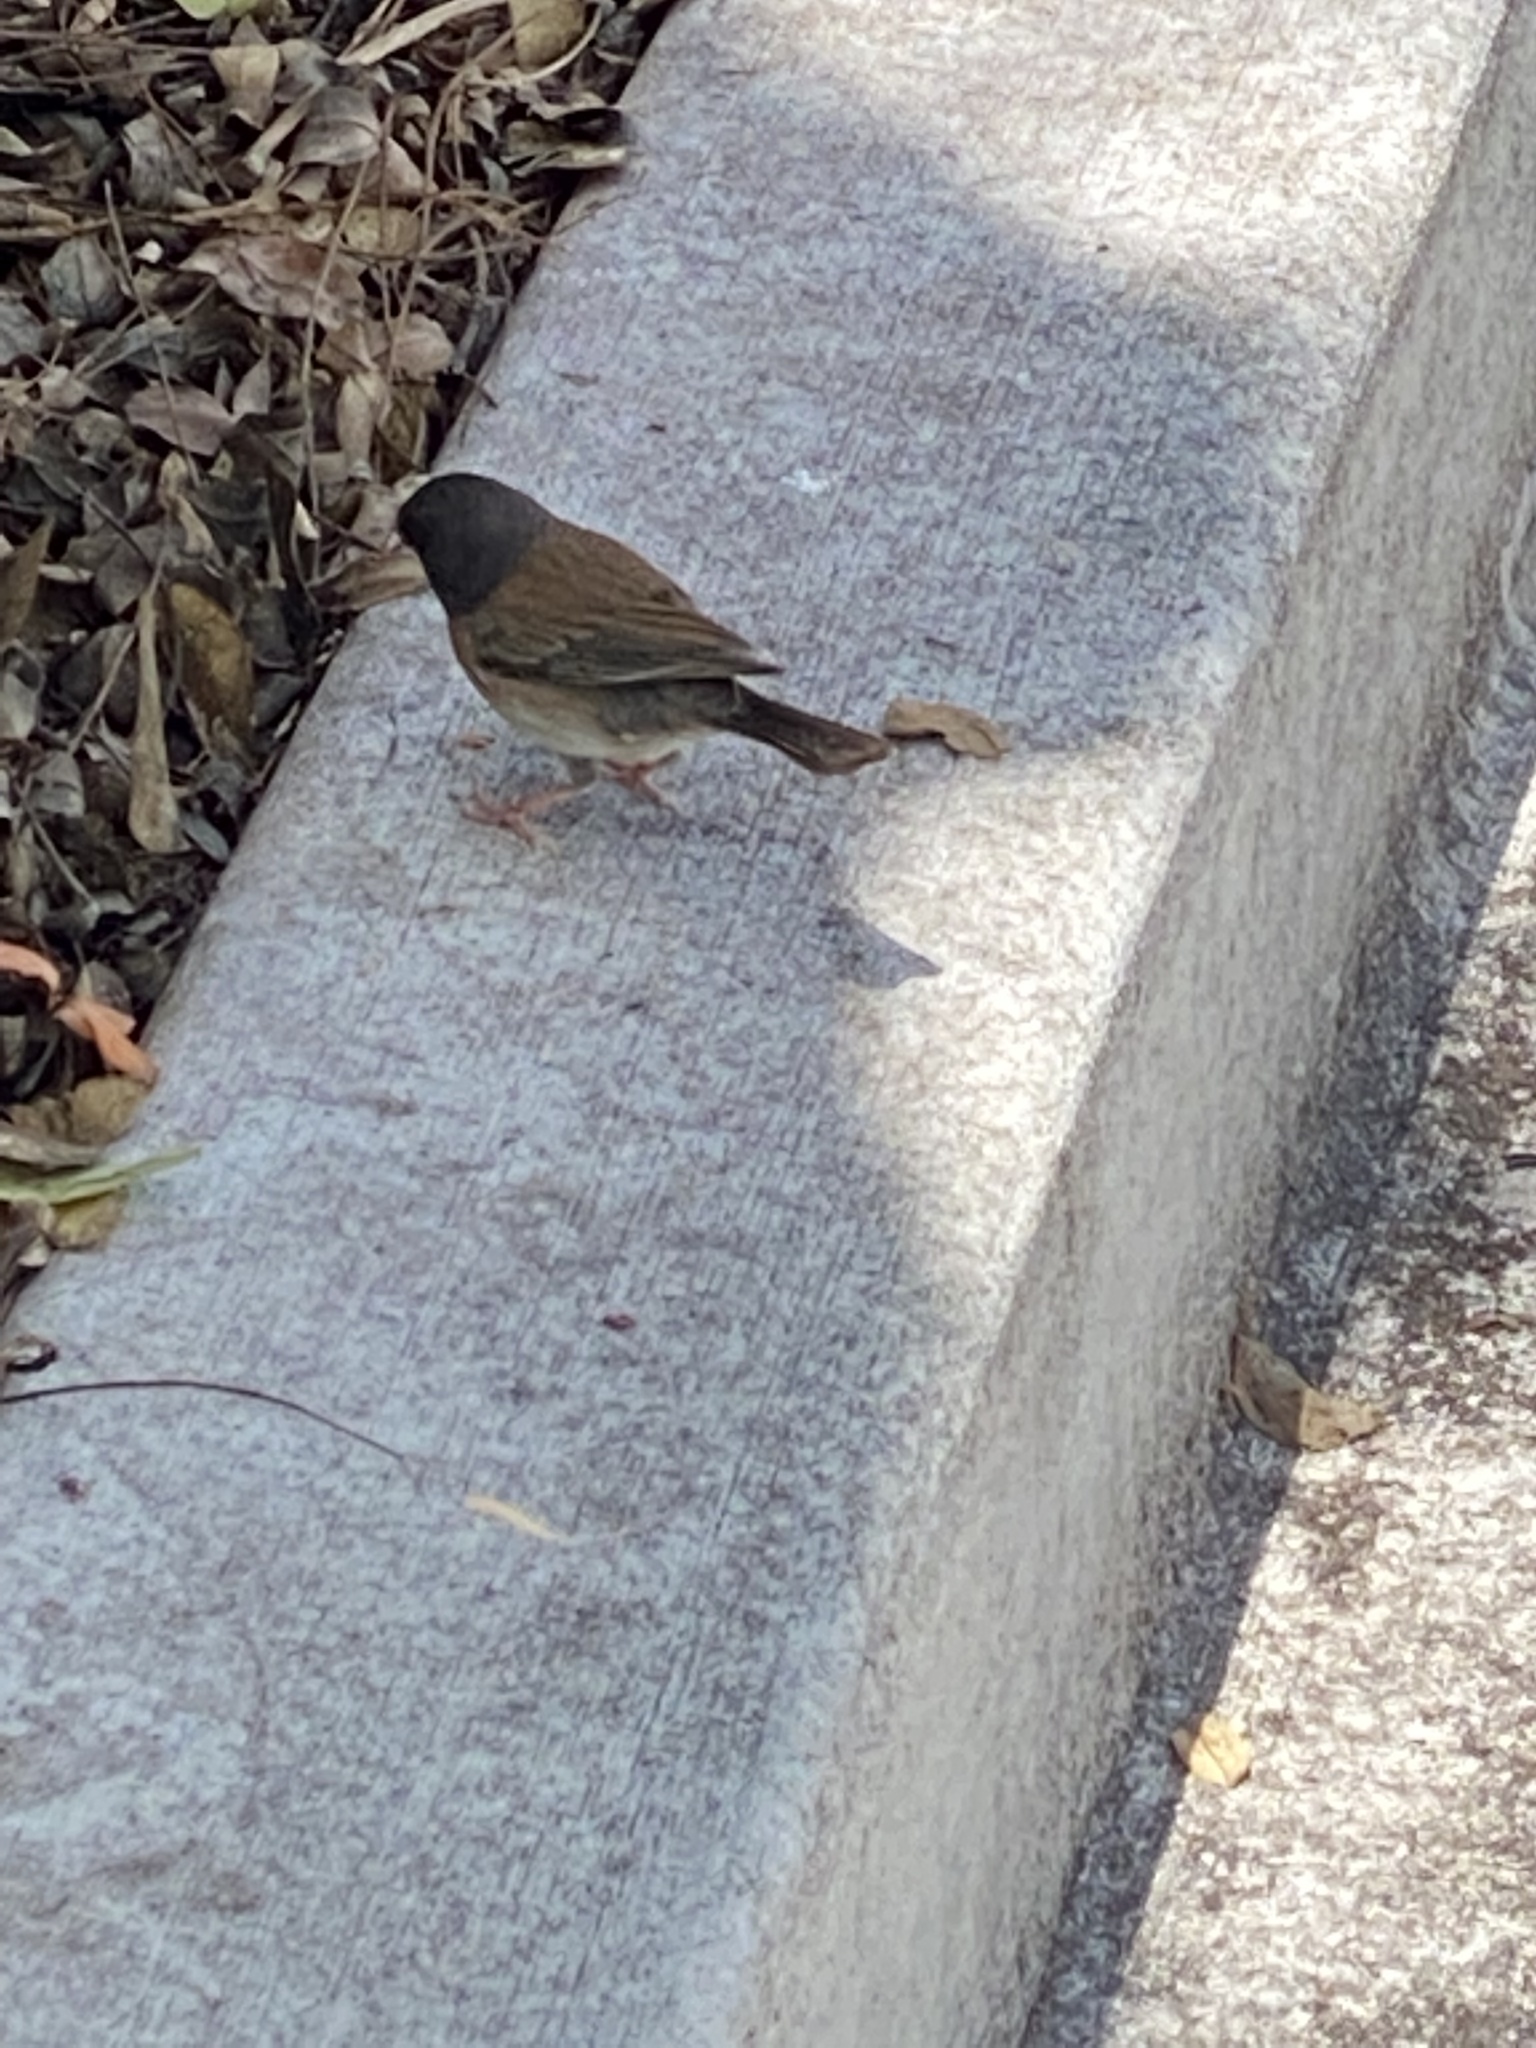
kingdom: Animalia
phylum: Chordata
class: Aves
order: Passeriformes
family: Passerellidae
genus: Junco
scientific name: Junco hyemalis
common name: Dark-eyed junco
